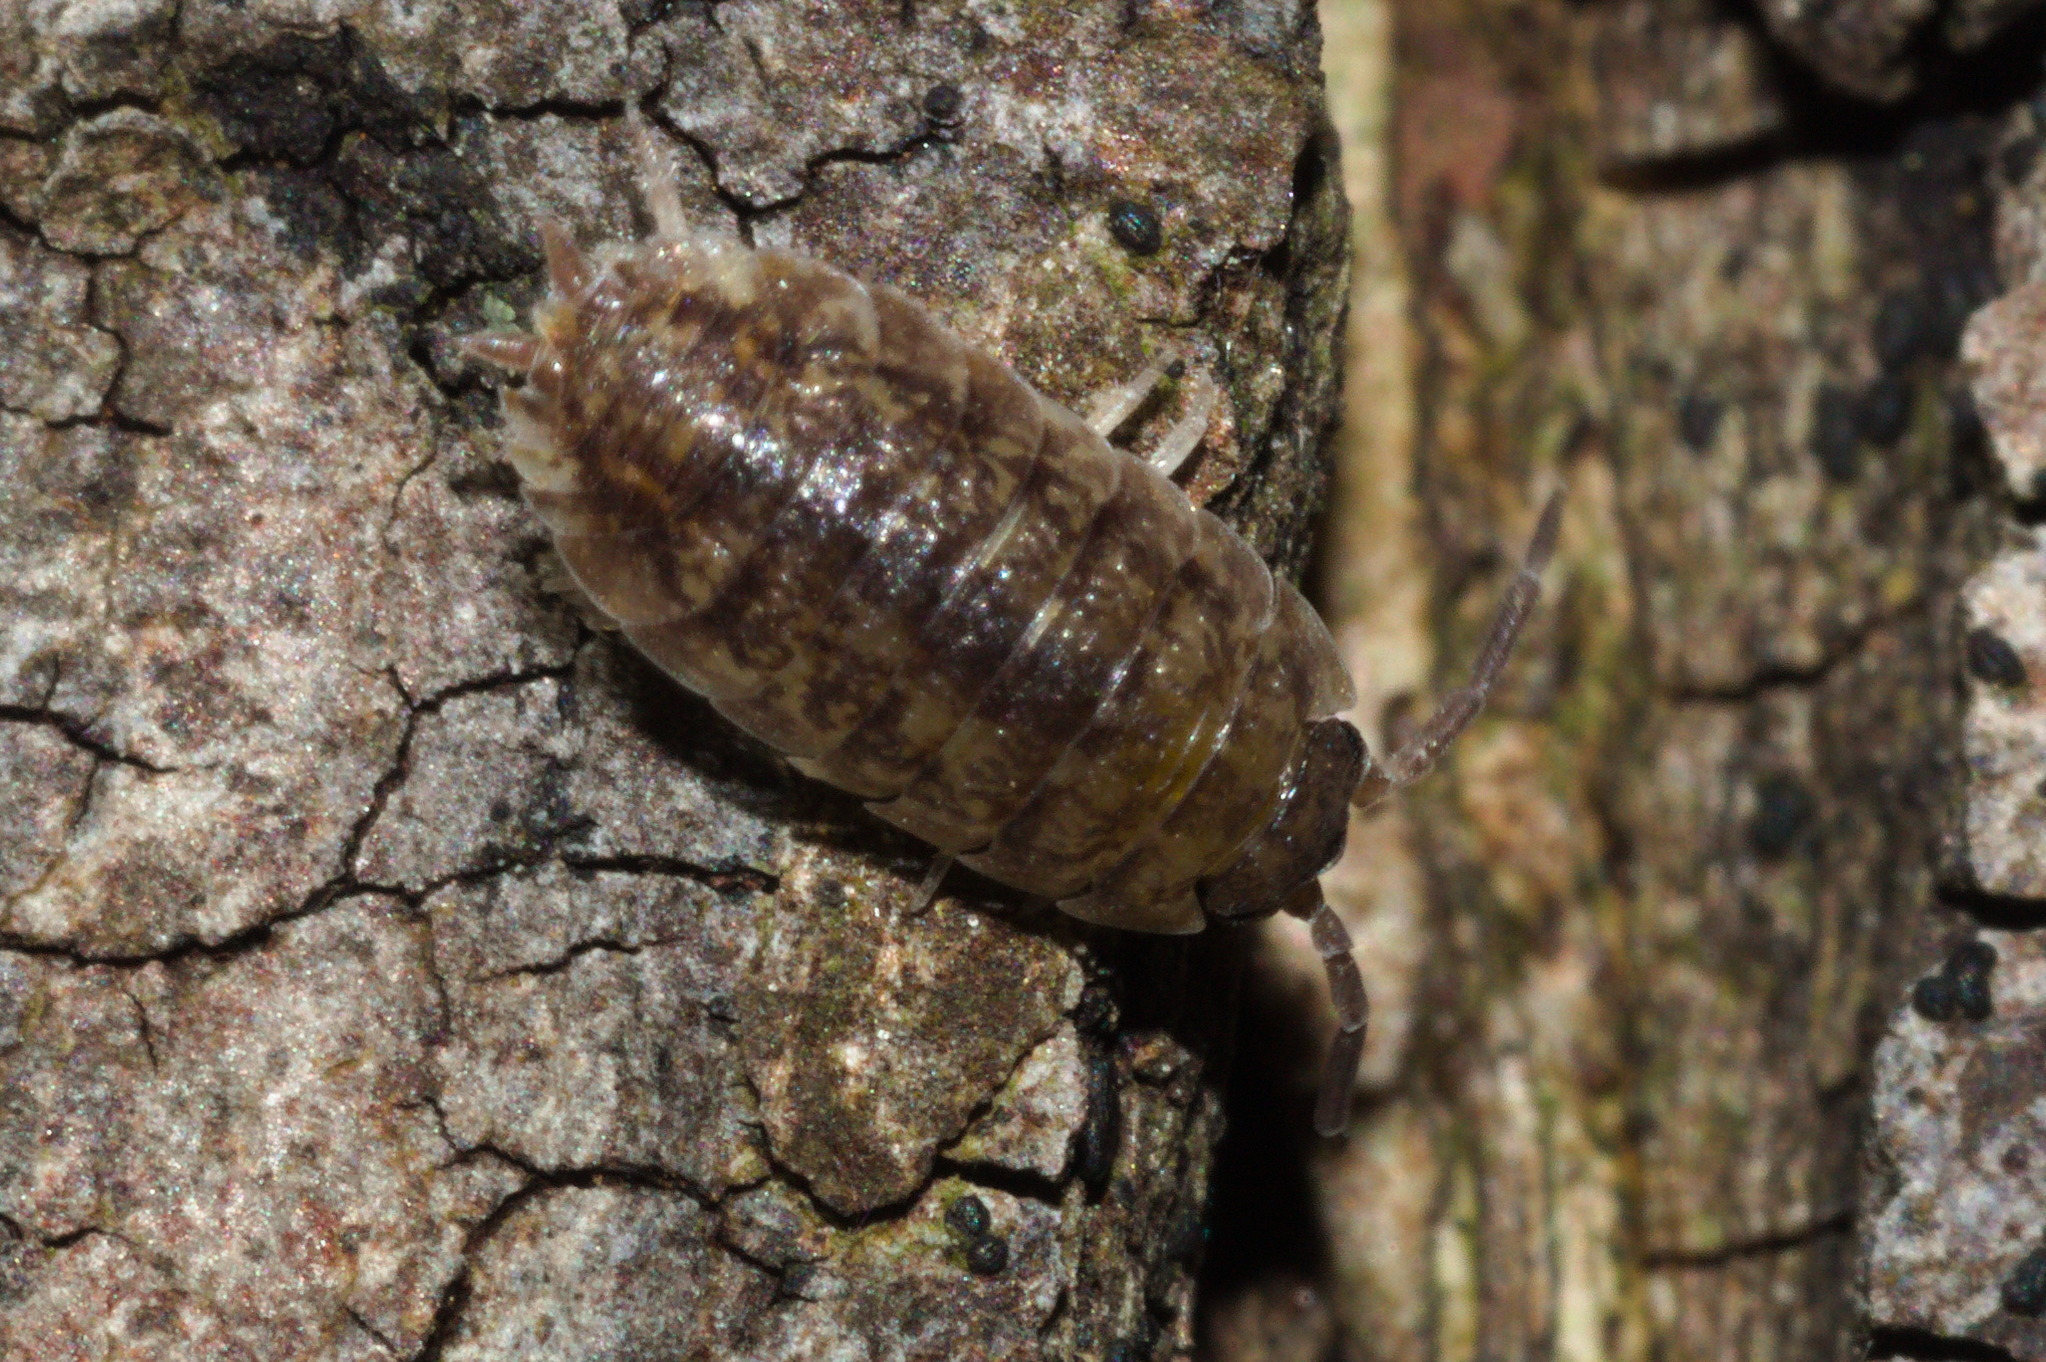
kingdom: Animalia
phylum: Arthropoda
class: Malacostraca
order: Isopoda
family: Porcellionidae
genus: Porcellio
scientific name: Porcellio scaber
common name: Common rough woodlouse
